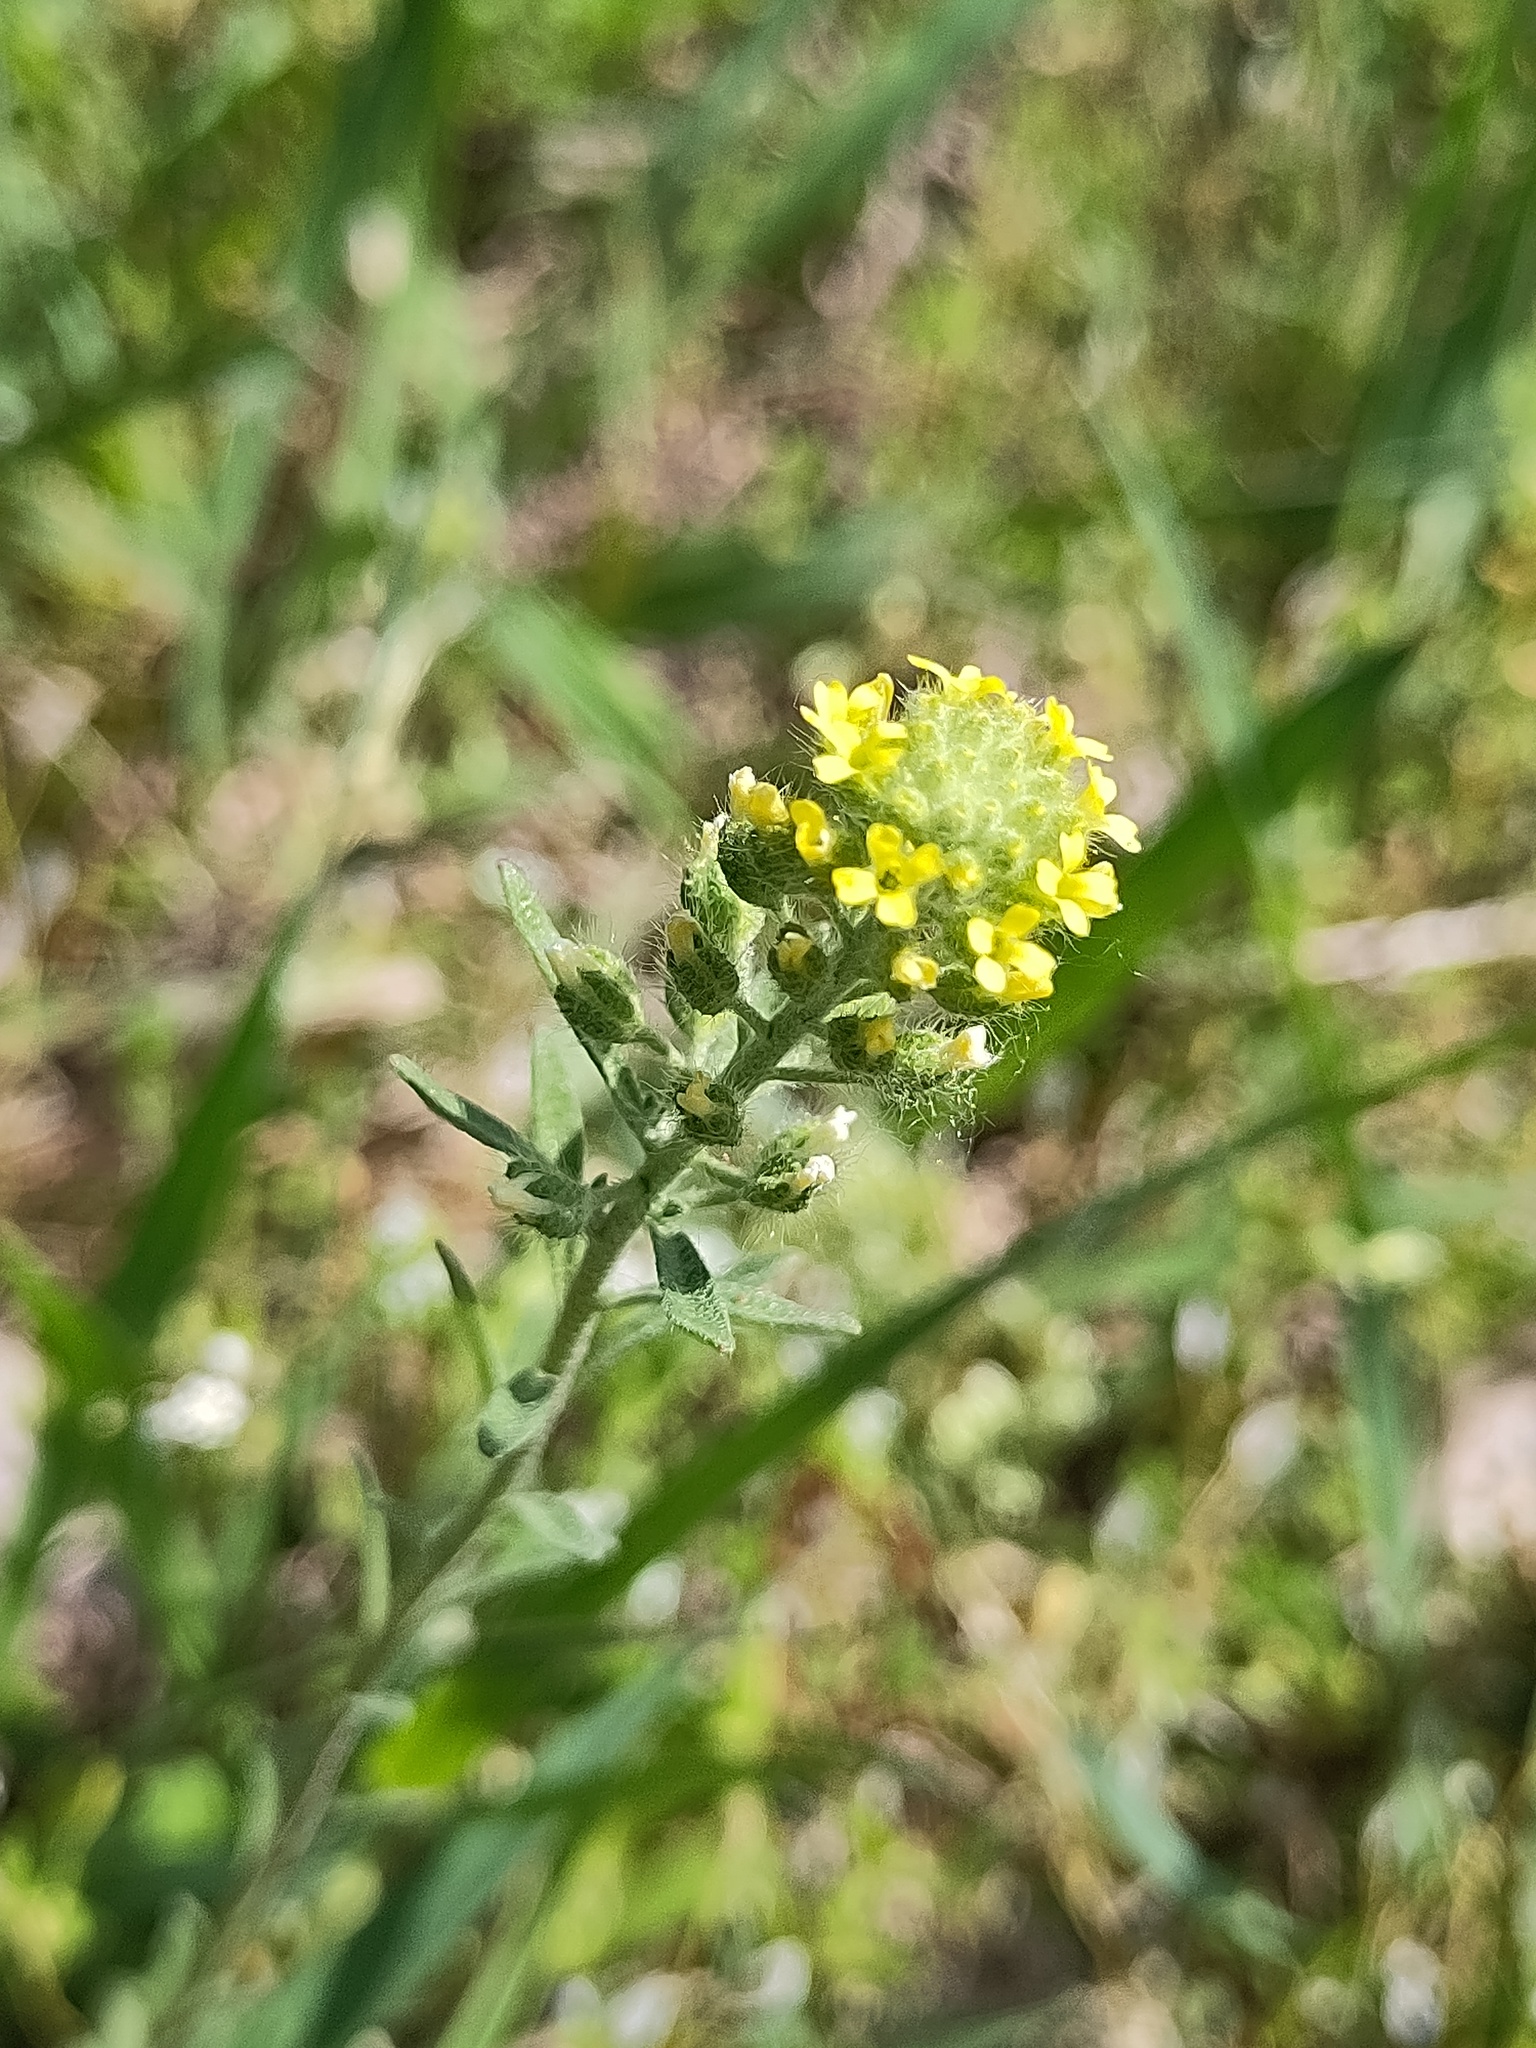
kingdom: Plantae
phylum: Tracheophyta
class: Magnoliopsida
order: Brassicales
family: Brassicaceae
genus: Alyssum
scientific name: Alyssum alyssoides
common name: Small alison
